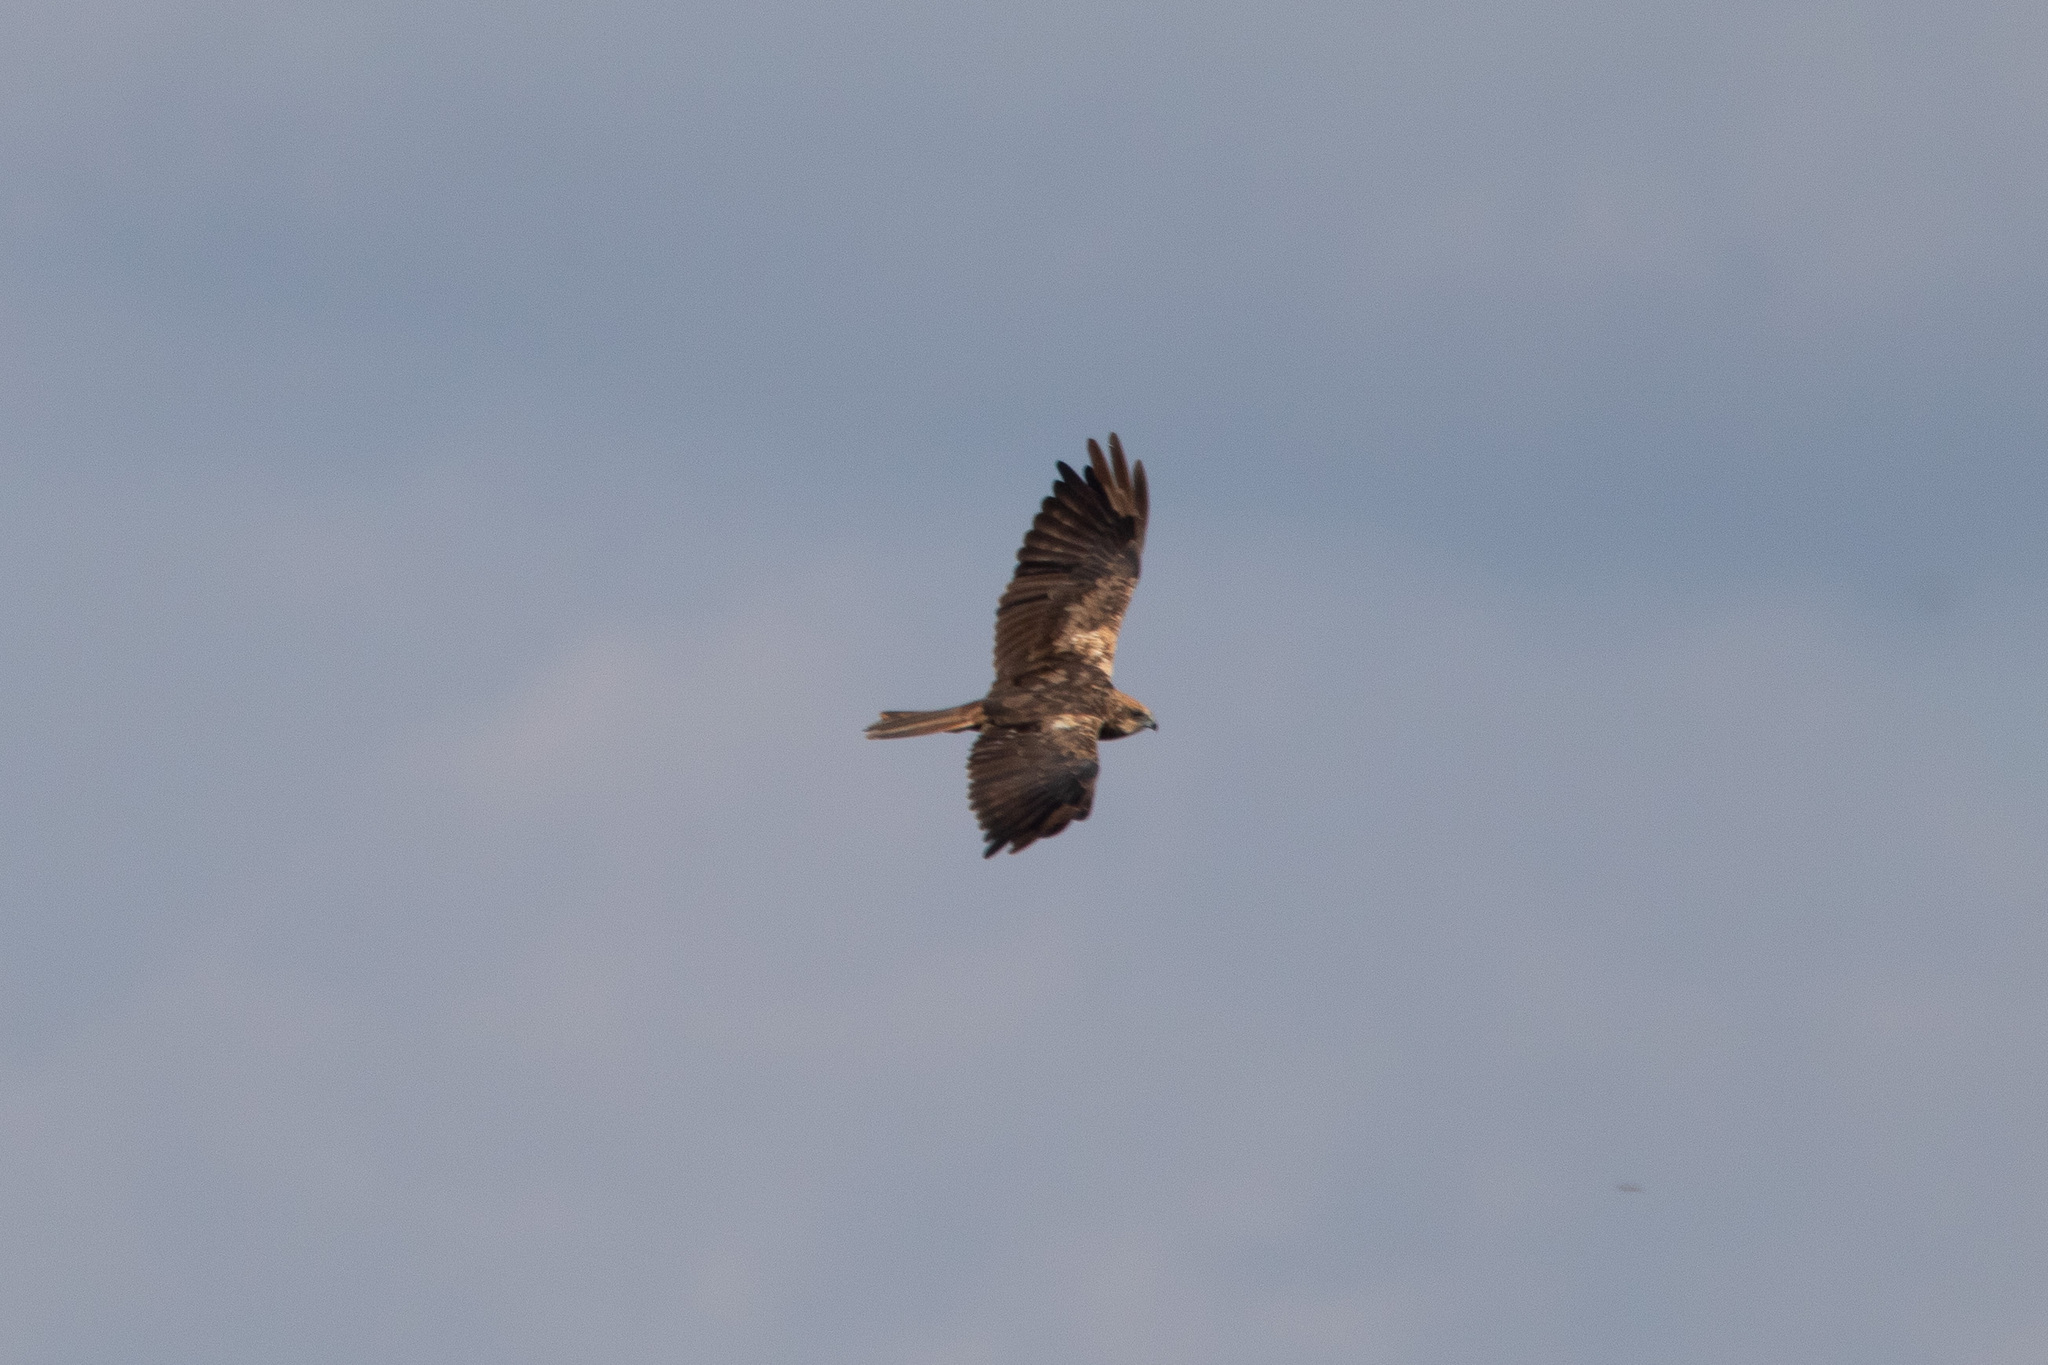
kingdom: Animalia
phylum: Chordata
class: Aves
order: Accipitriformes
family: Accipitridae
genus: Circus
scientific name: Circus aeruginosus
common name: Western marsh harrier
